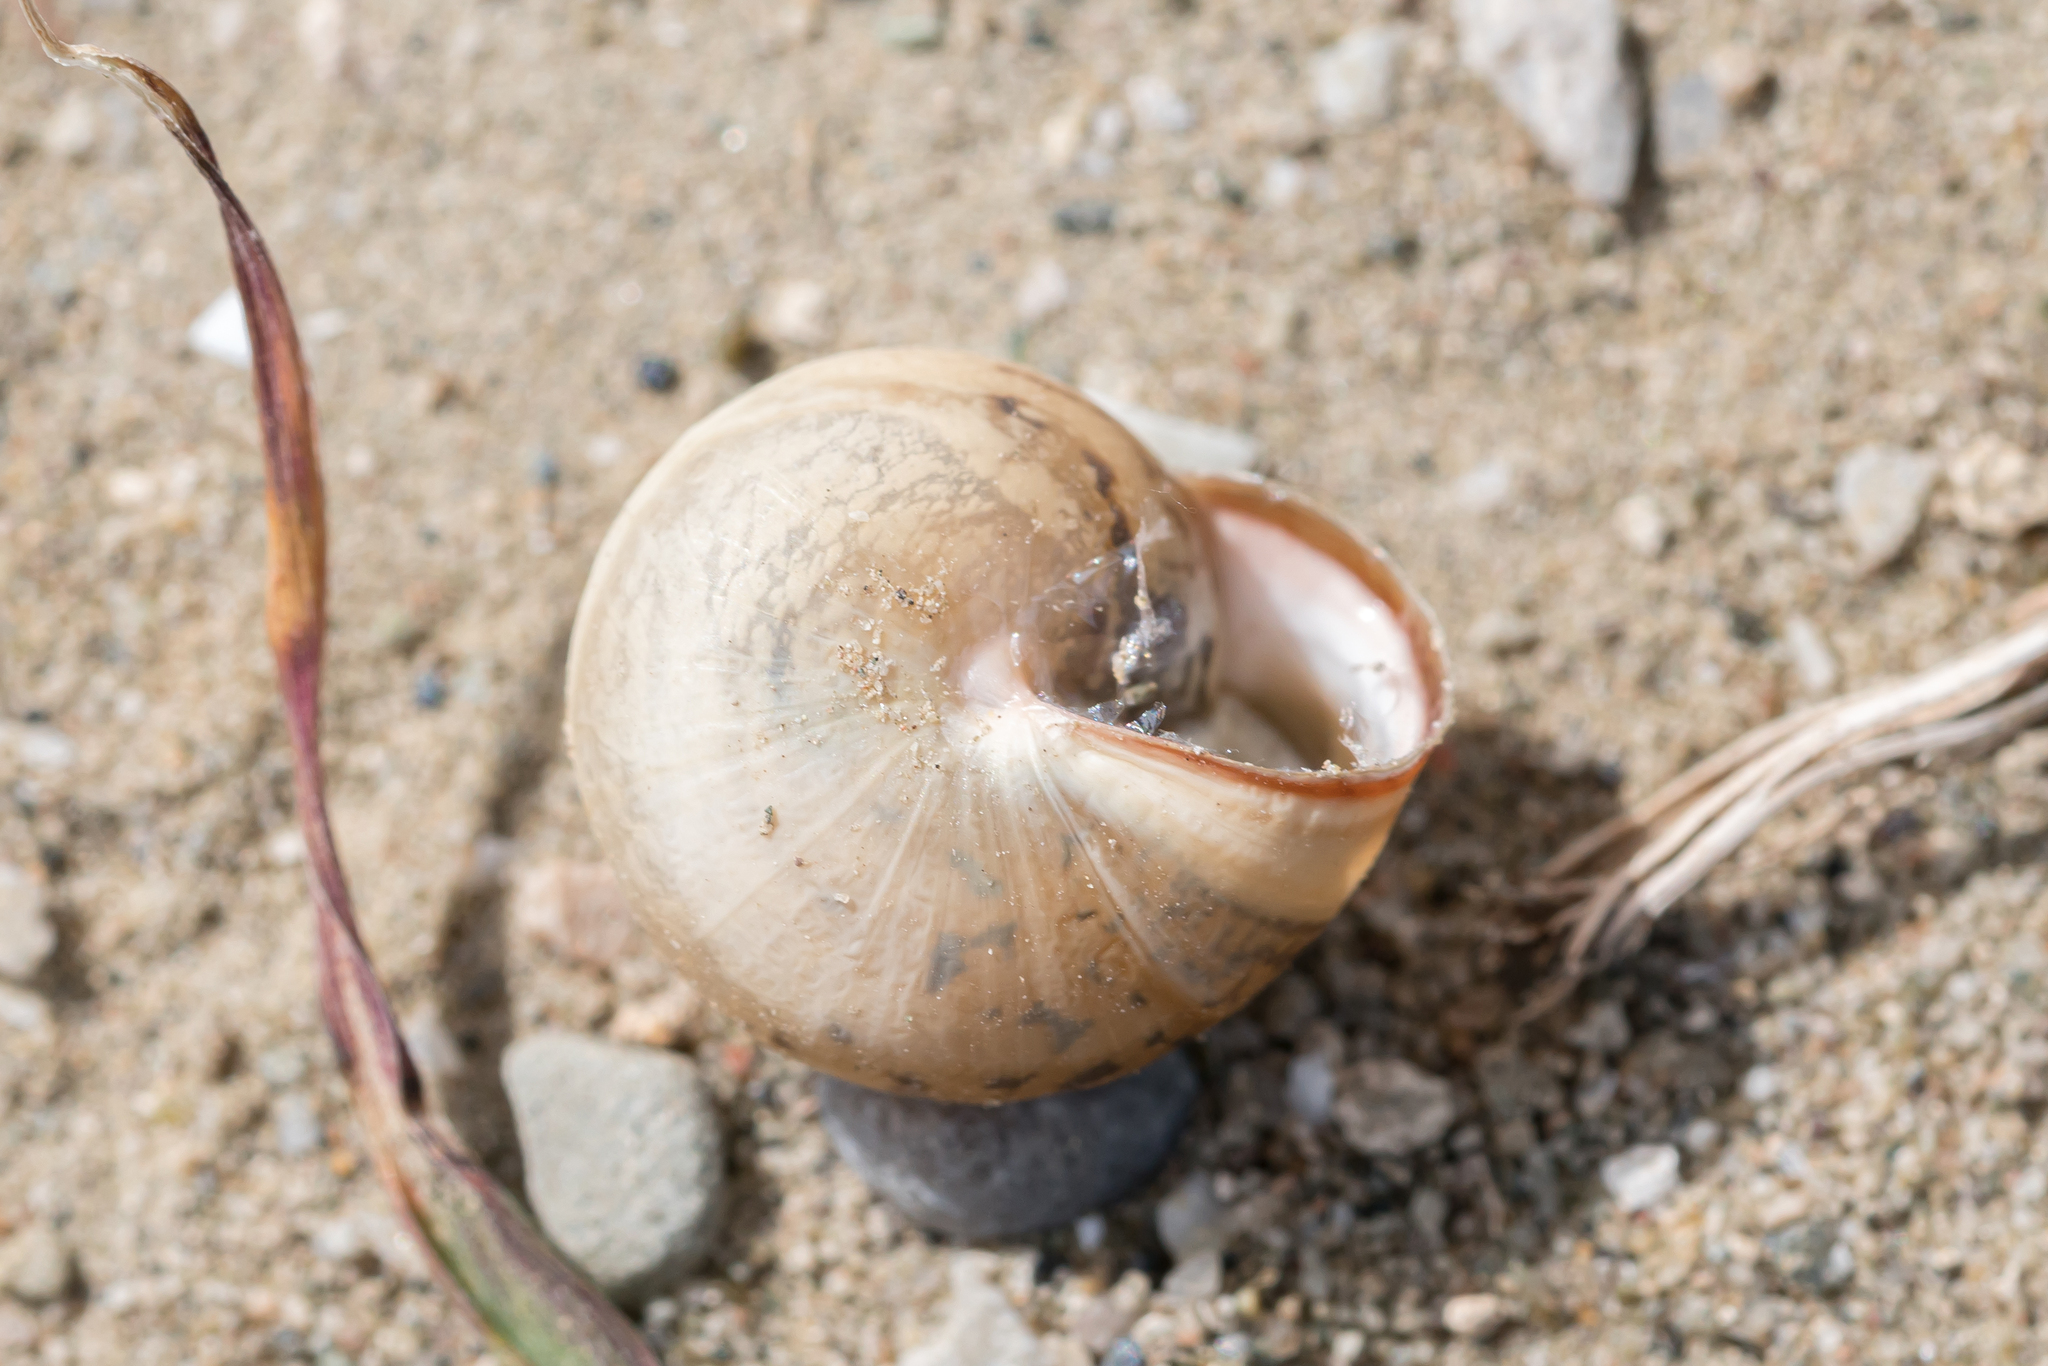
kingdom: Animalia
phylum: Mollusca
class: Gastropoda
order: Stylommatophora
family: Hygromiidae
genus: Monacha
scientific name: Monacha syriaca
